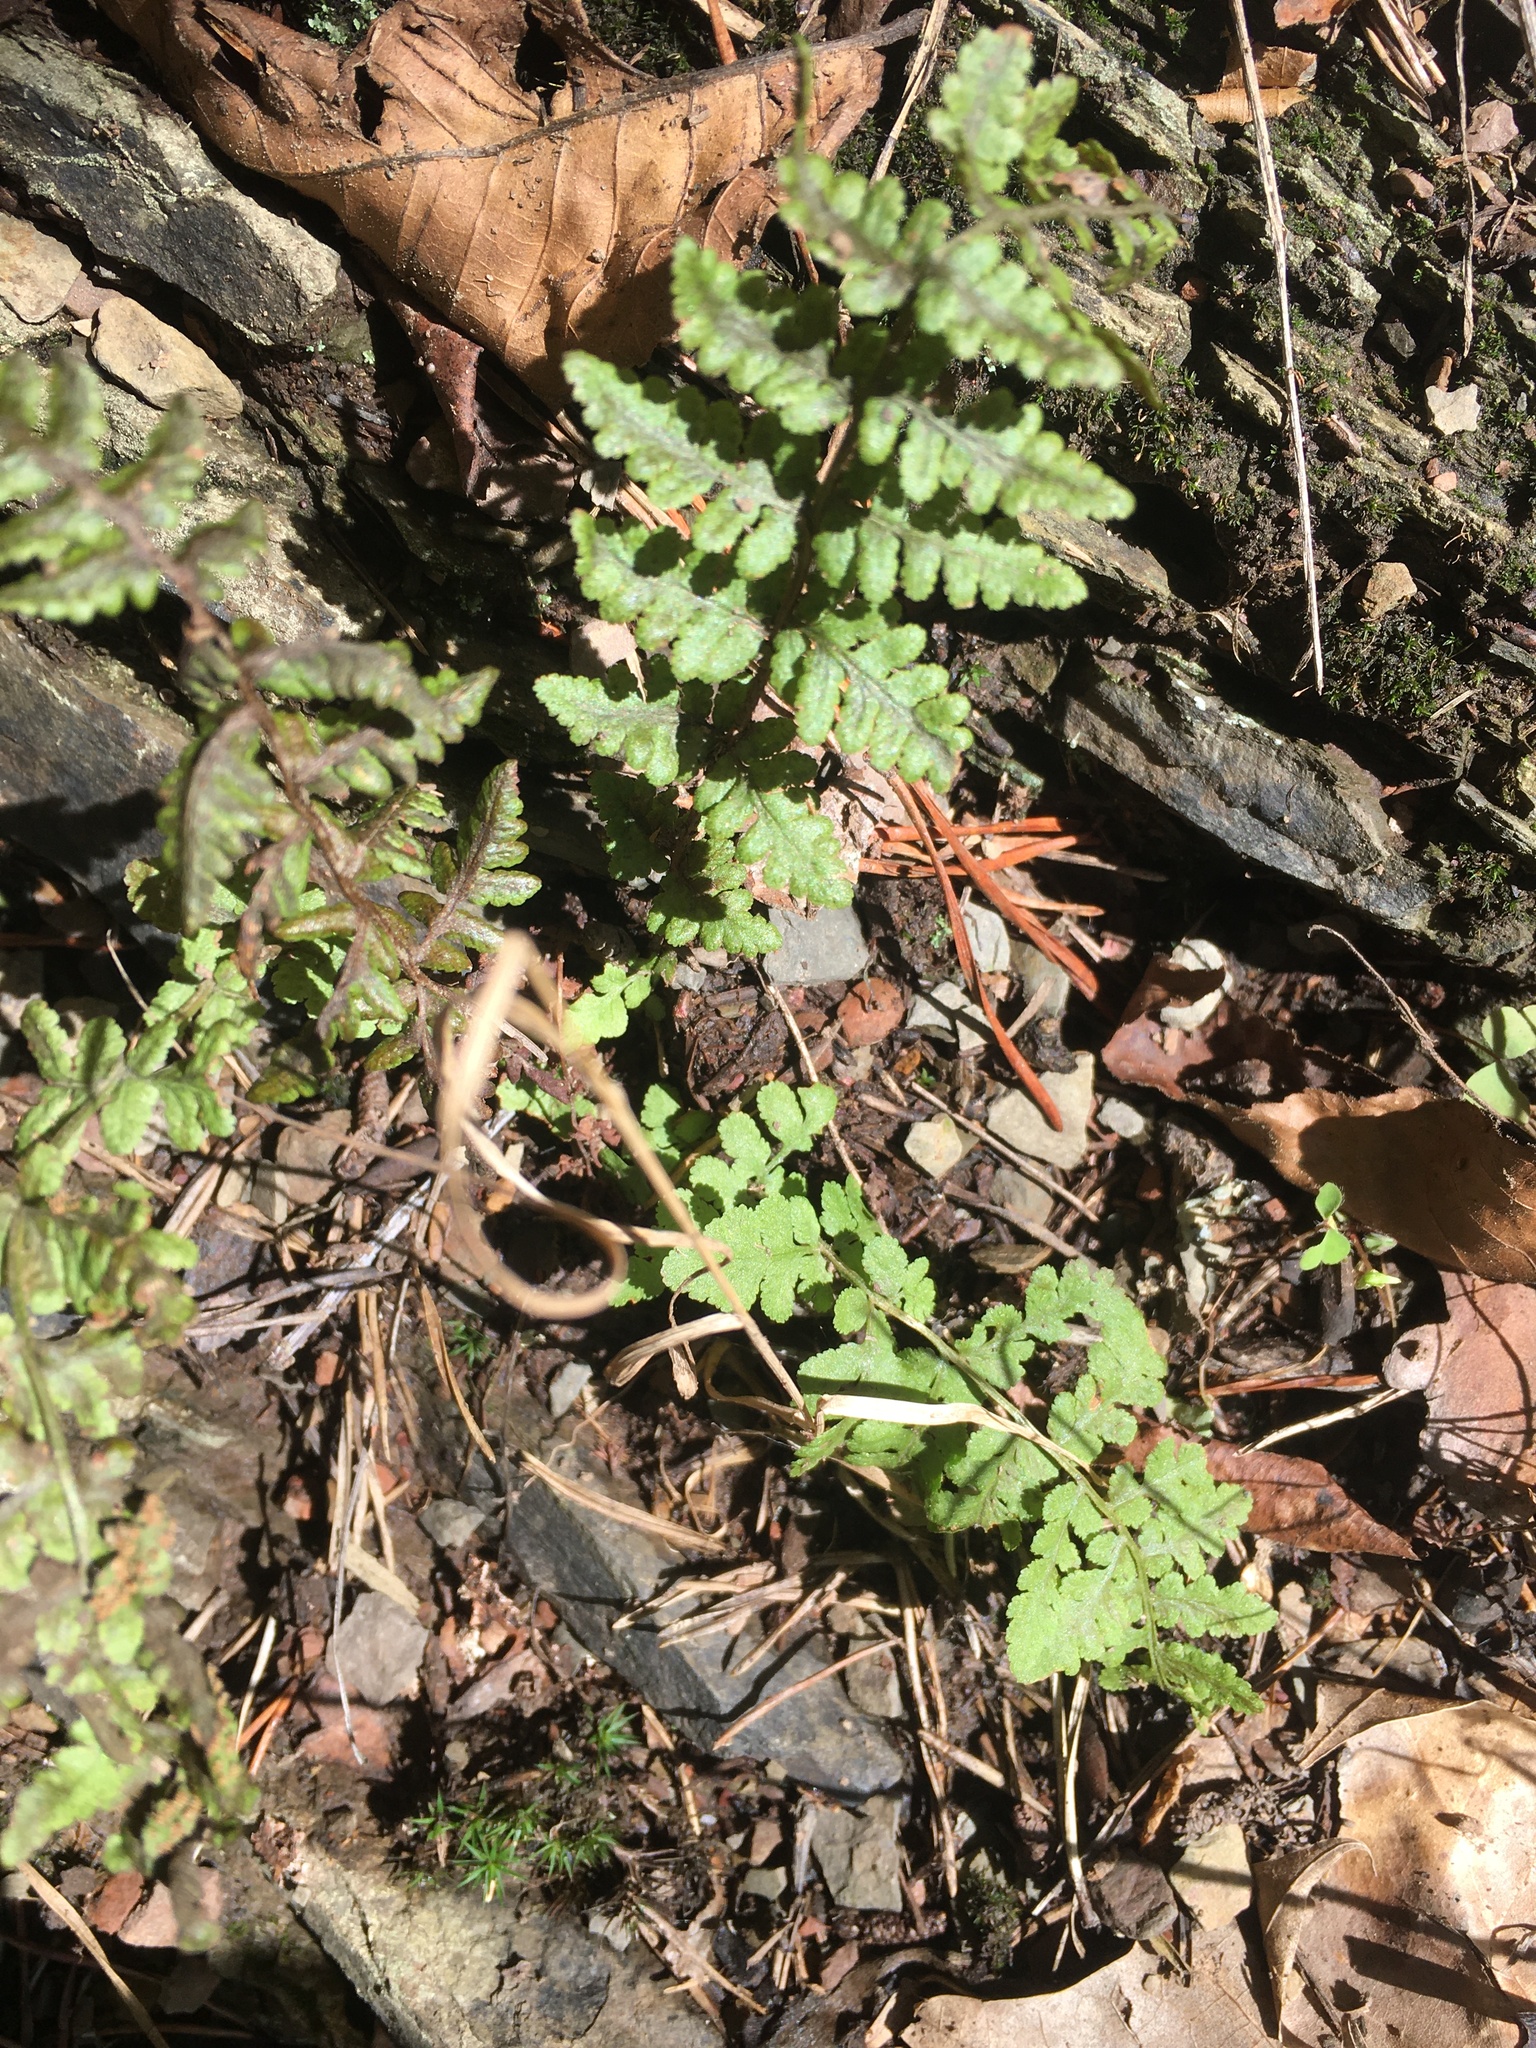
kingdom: Plantae
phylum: Tracheophyta
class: Polypodiopsida
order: Polypodiales
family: Woodsiaceae
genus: Physematium
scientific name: Physematium obtusum
